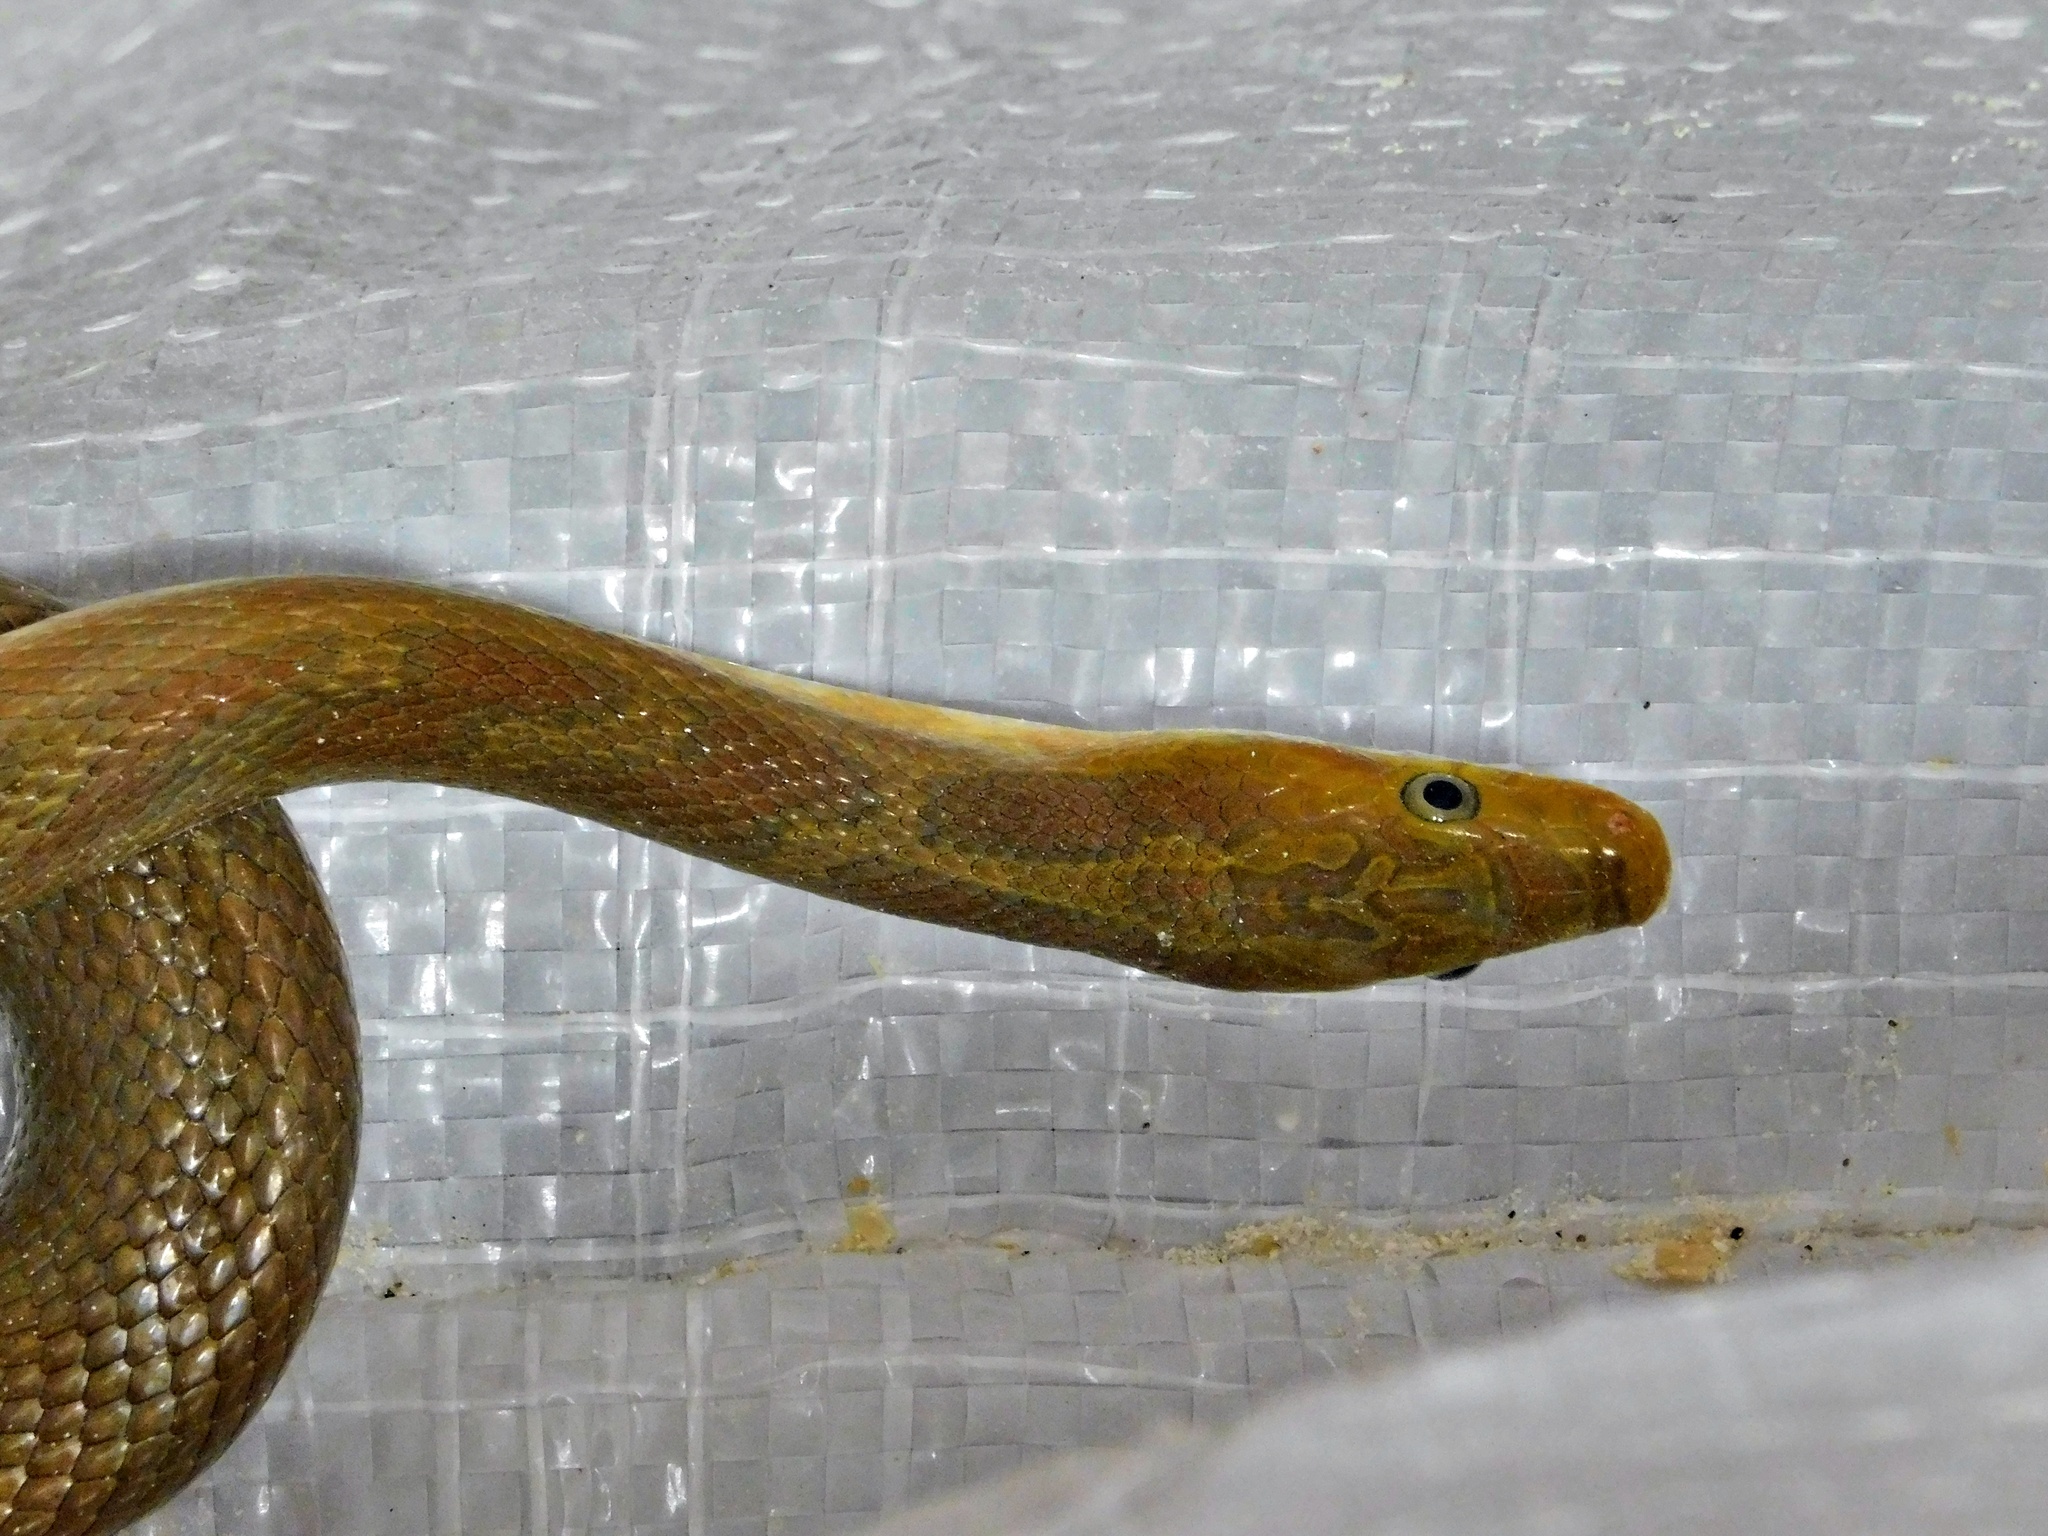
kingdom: Animalia
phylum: Chordata
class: Squamata
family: Colubridae
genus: Senticolis
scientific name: Senticolis triaspis
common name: Green rat snake
